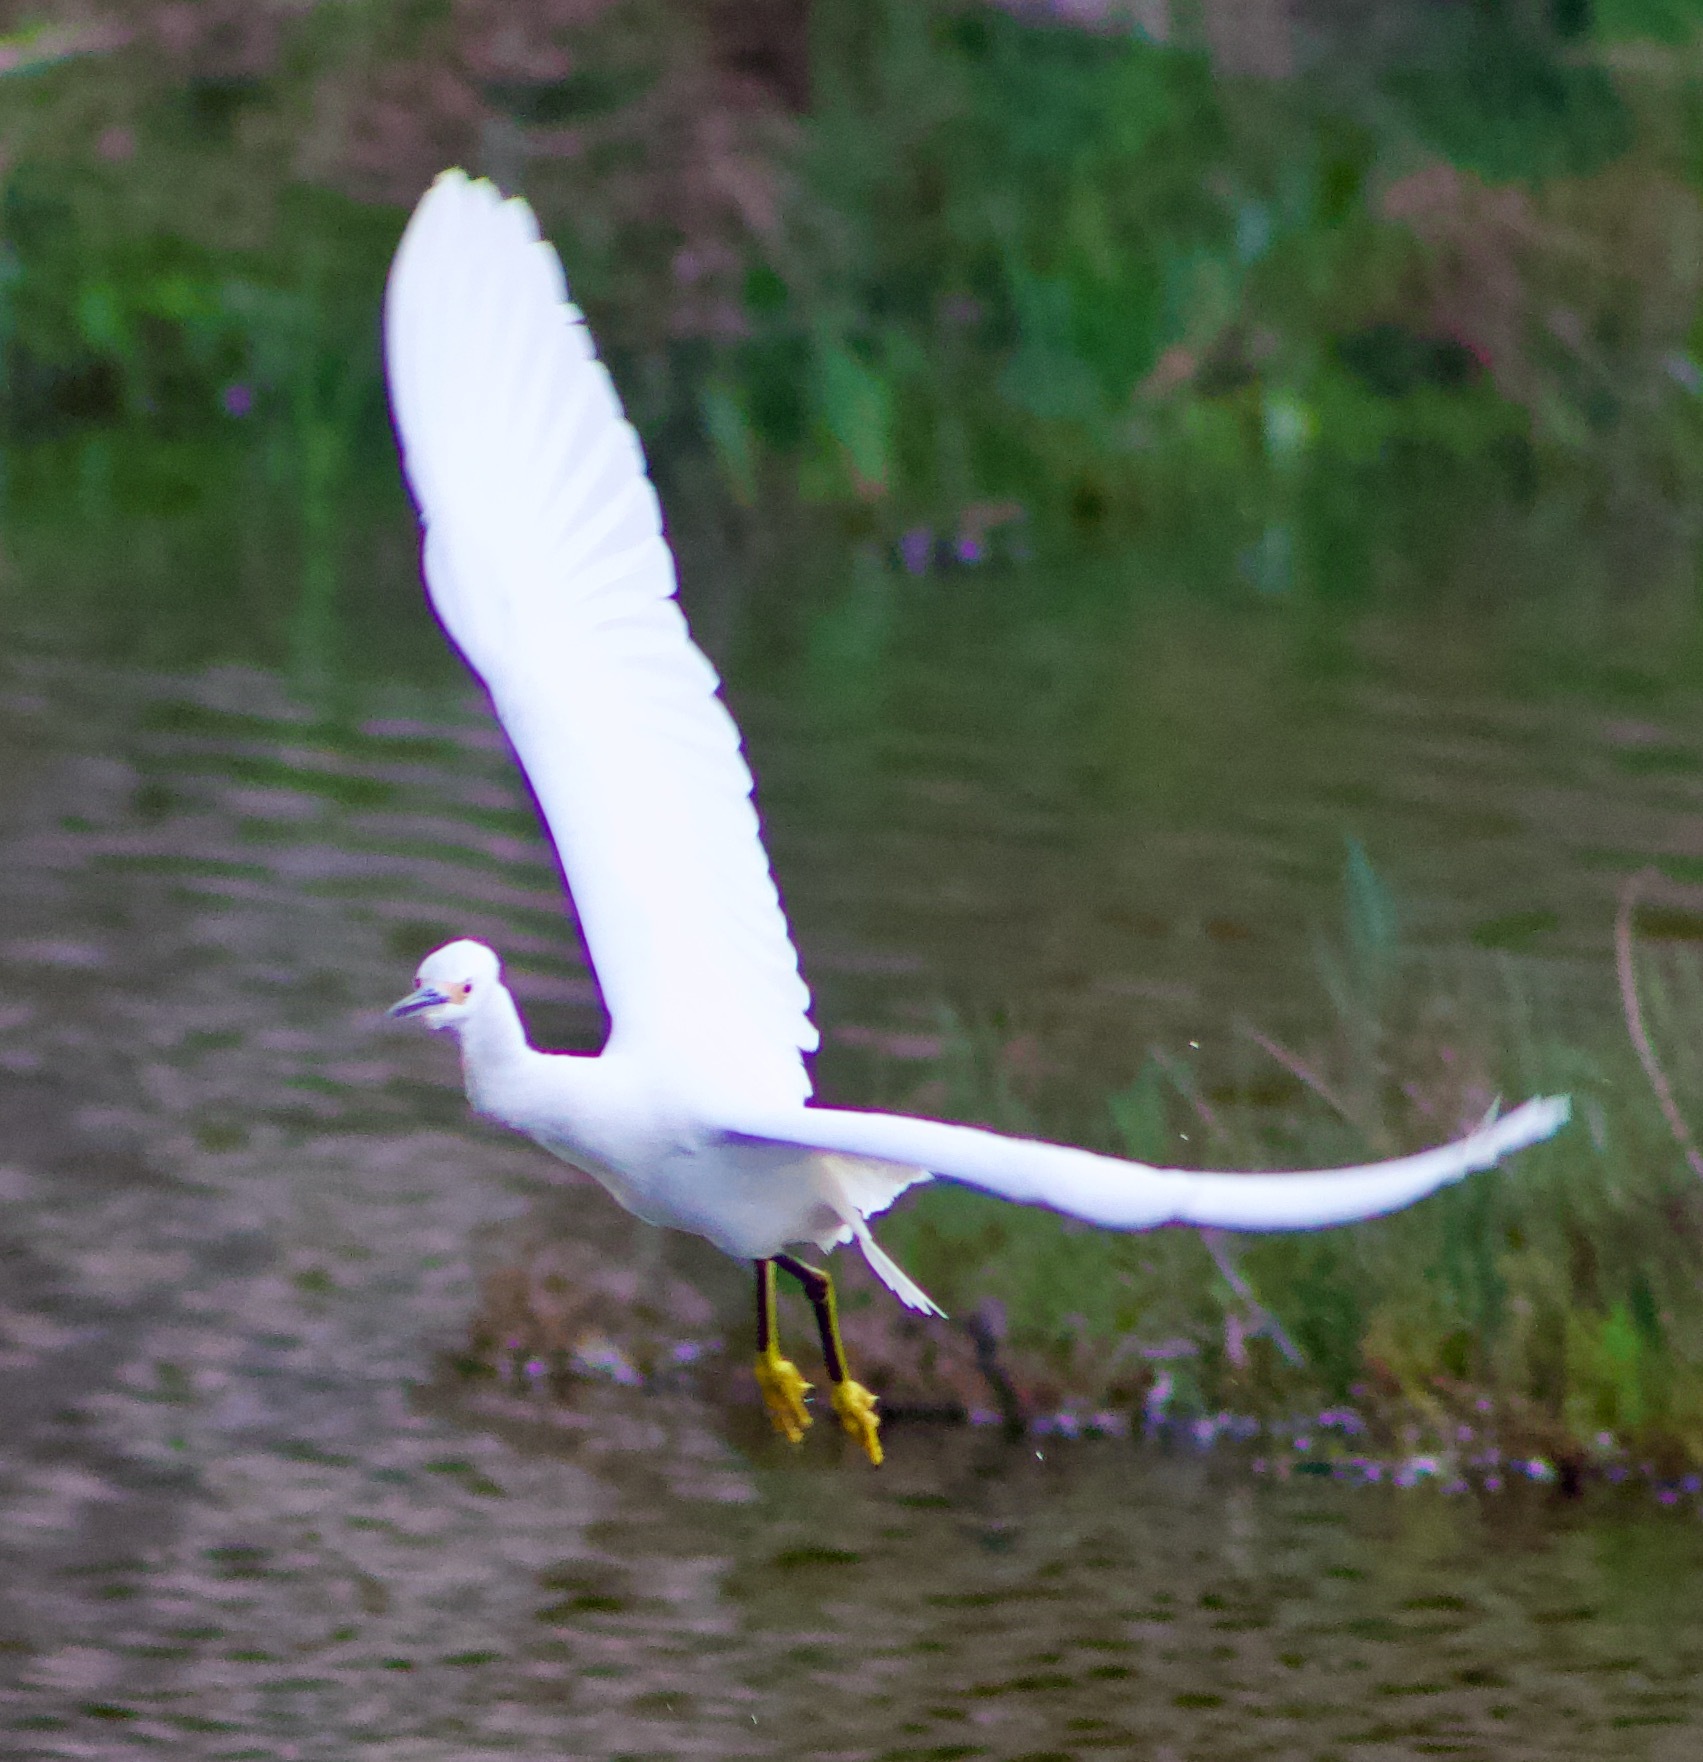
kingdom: Animalia
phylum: Chordata
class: Aves
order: Pelecaniformes
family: Ardeidae
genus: Egretta
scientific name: Egretta thula
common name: Snowy egret
